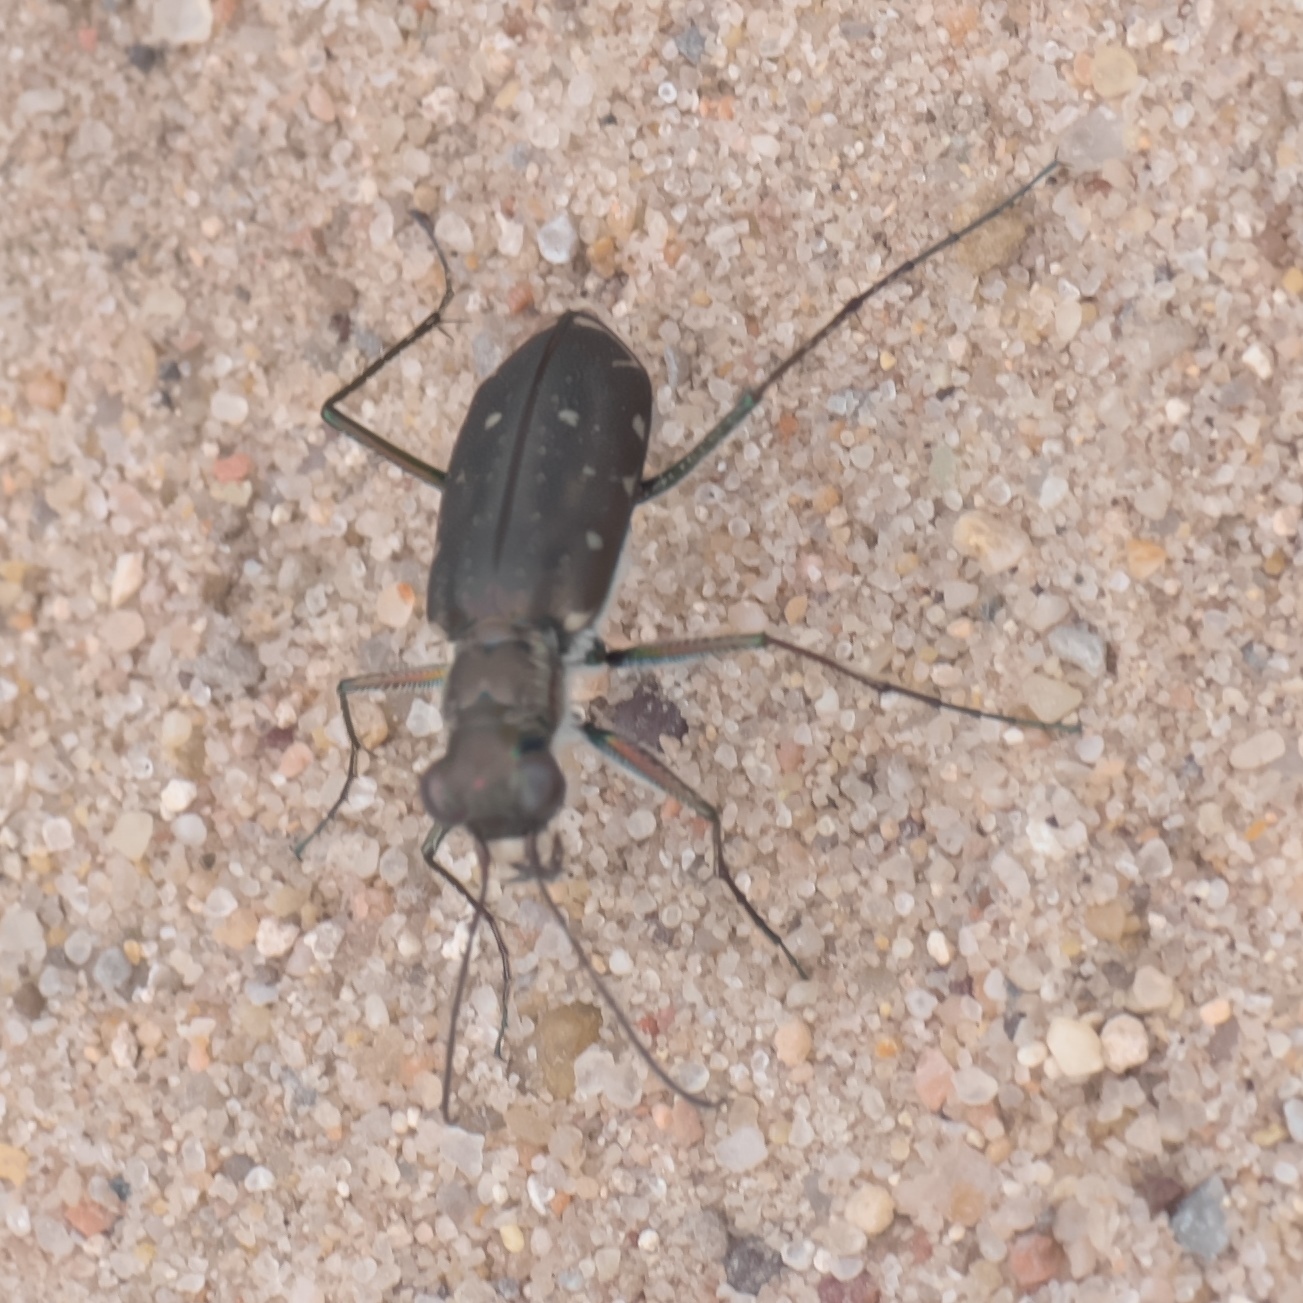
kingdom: Animalia
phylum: Arthropoda
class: Insecta
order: Coleoptera
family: Carabidae
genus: Cicindela
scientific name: Cicindela punctulata
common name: Punctured tiger beetle
